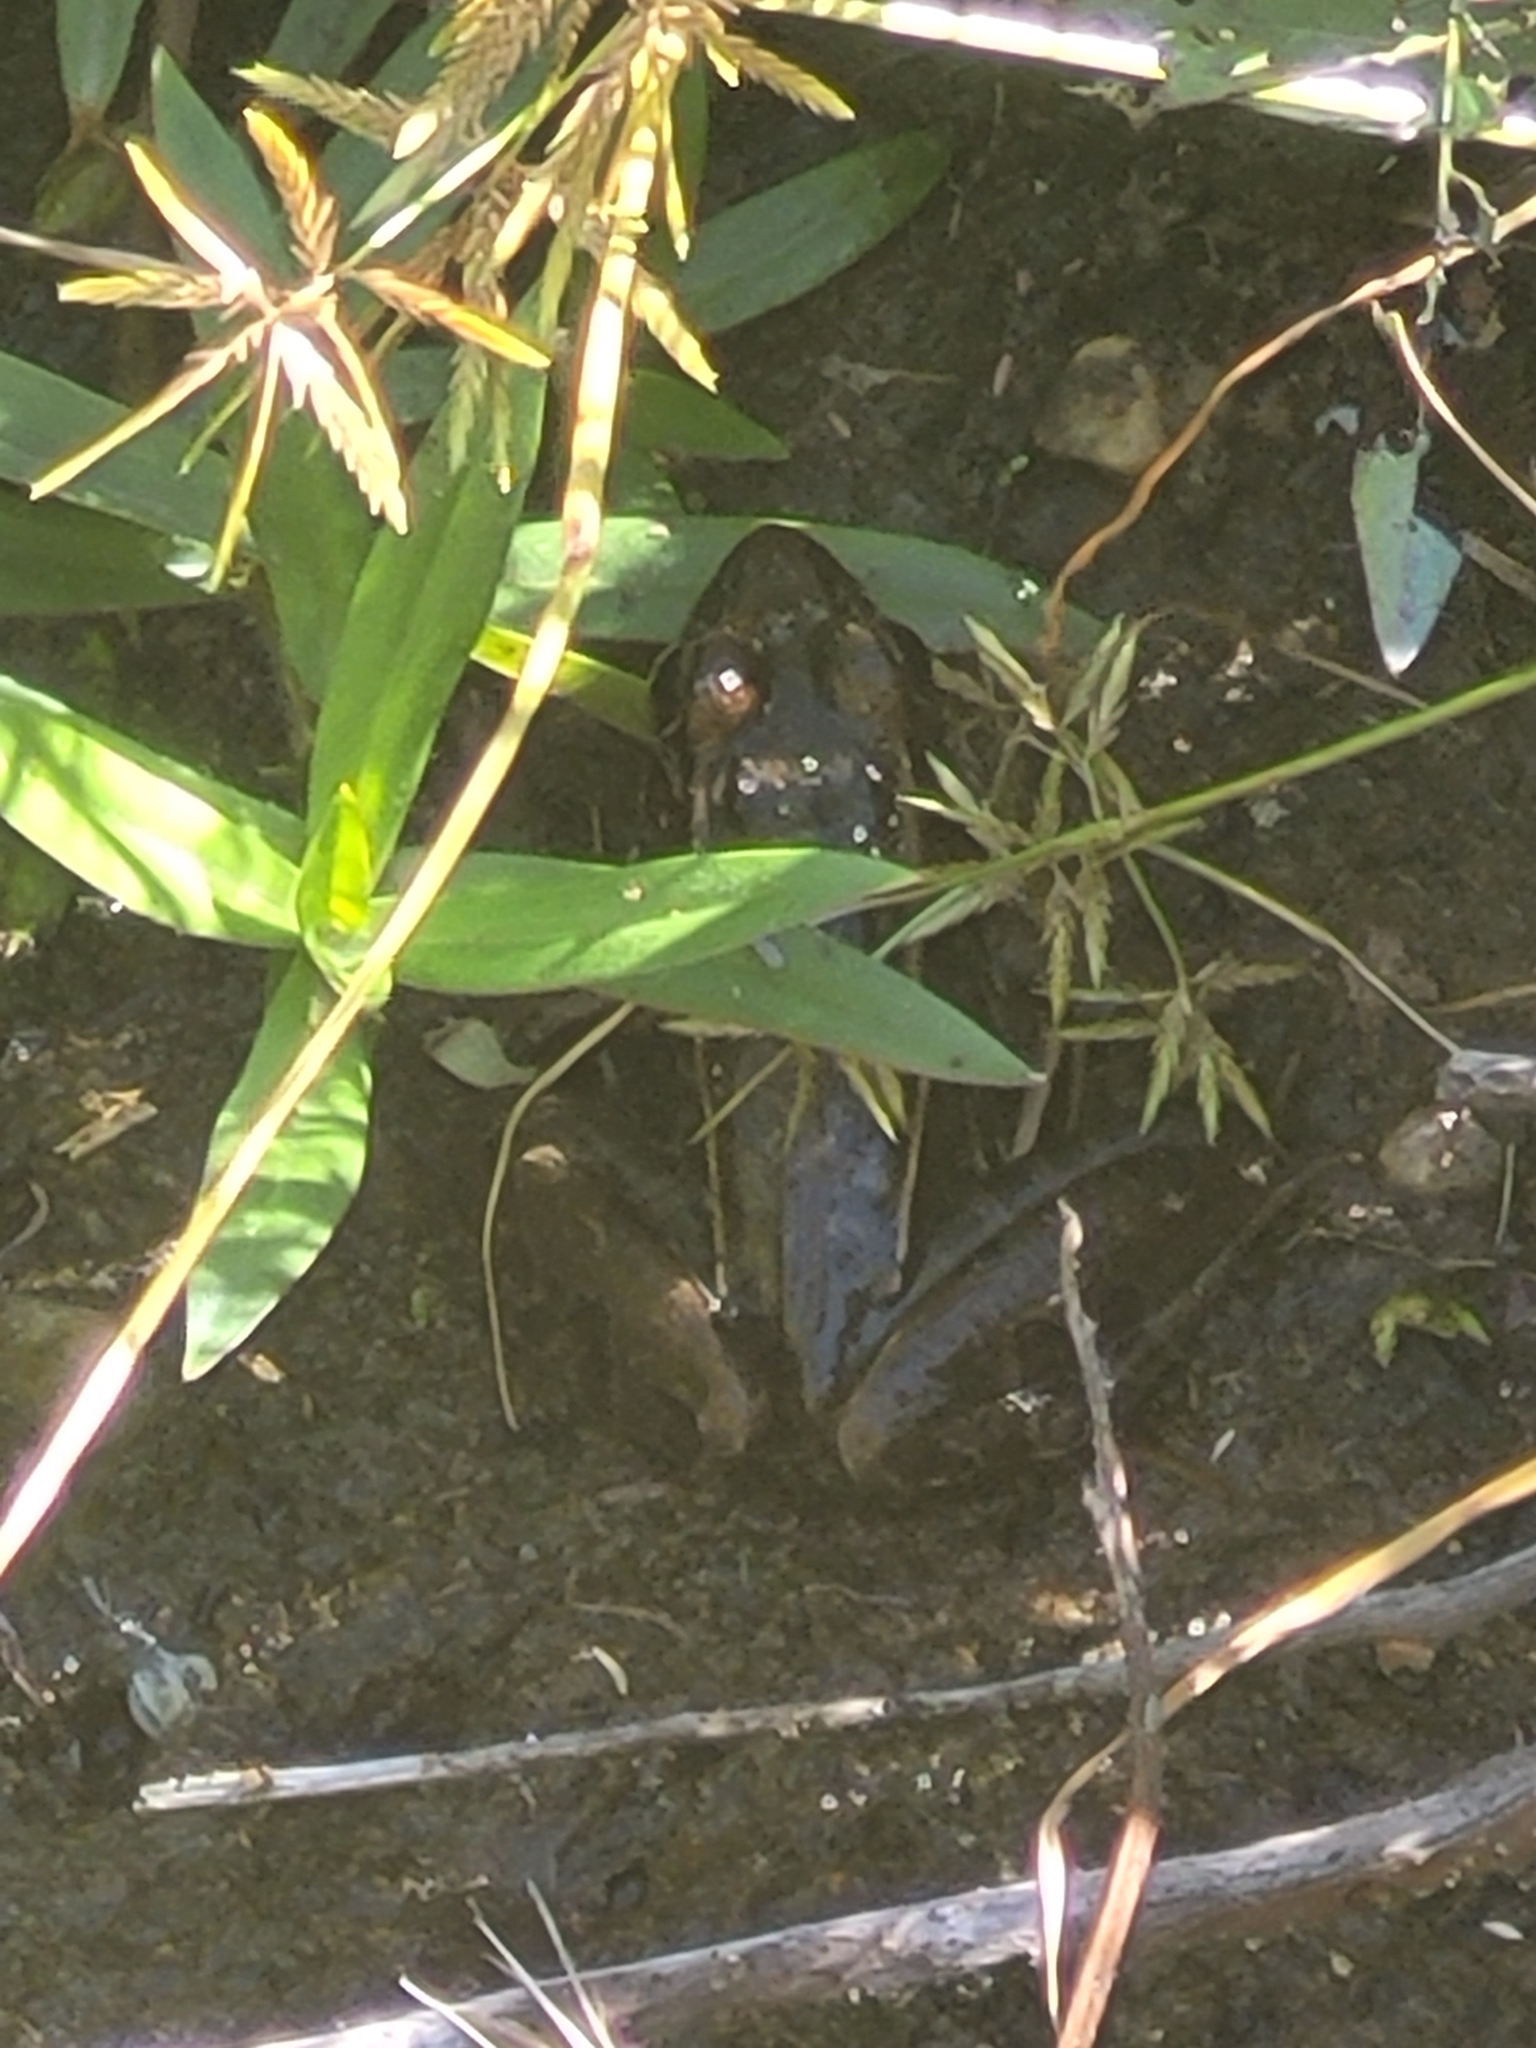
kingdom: Animalia
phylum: Chordata
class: Amphibia
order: Anura
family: Ranidae
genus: Lithobates
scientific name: Lithobates sphenocephalus
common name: Southern leopard frog
